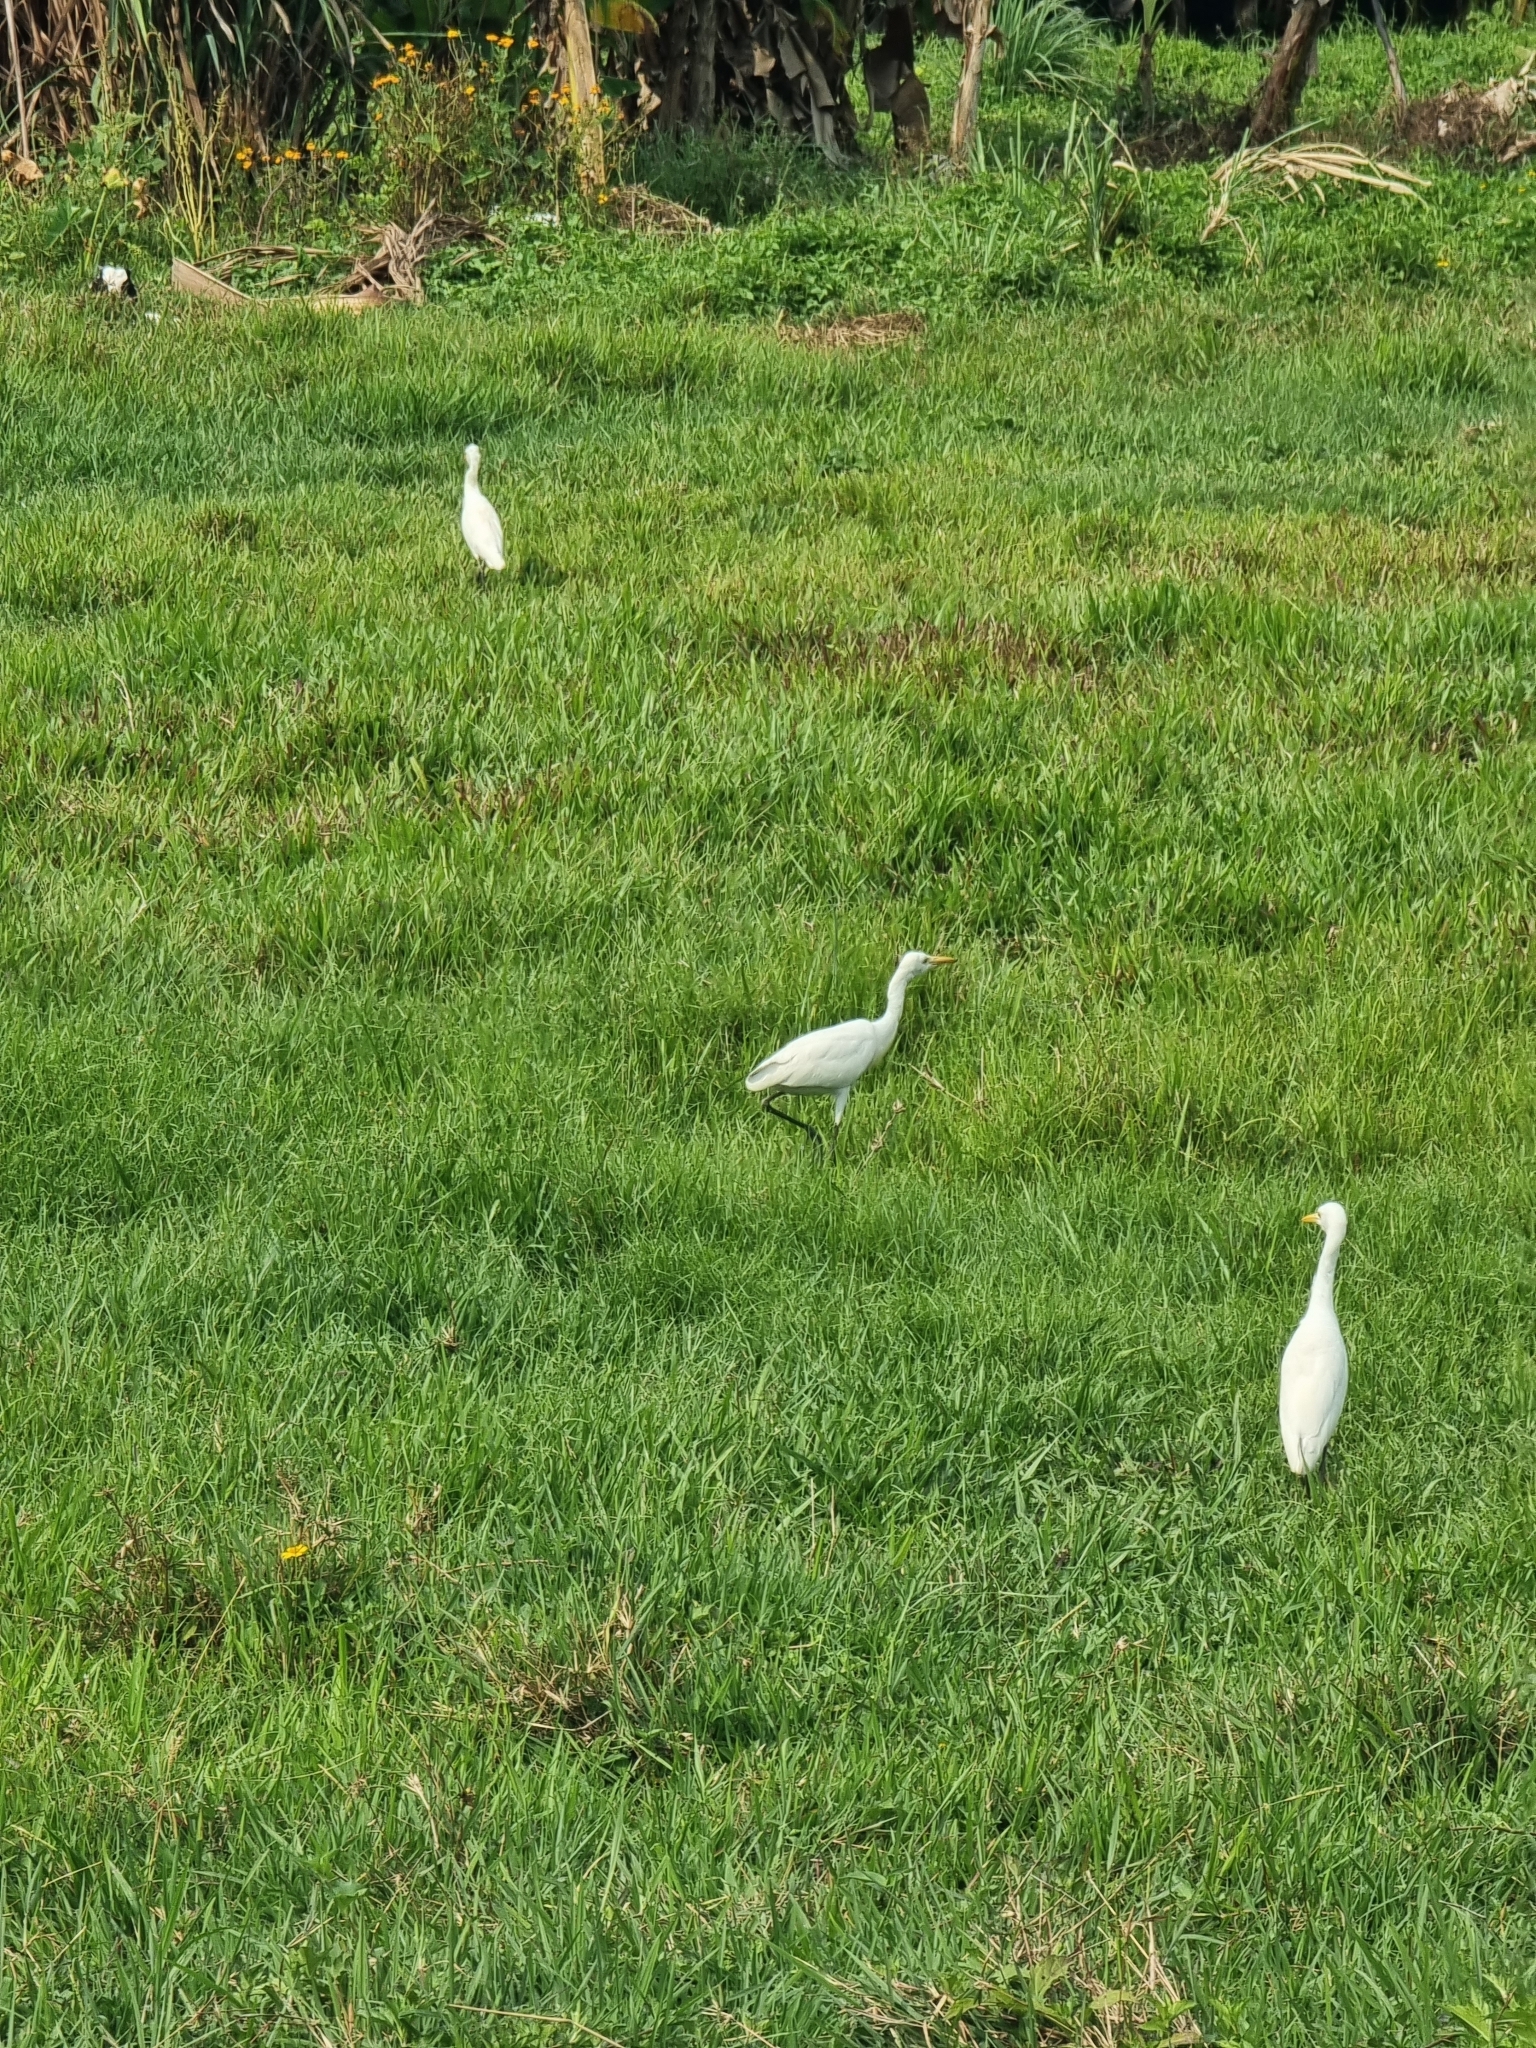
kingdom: Animalia
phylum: Chordata
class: Aves
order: Pelecaniformes
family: Ardeidae
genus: Bubulcus
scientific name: Bubulcus coromandus
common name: Eastern cattle egret
